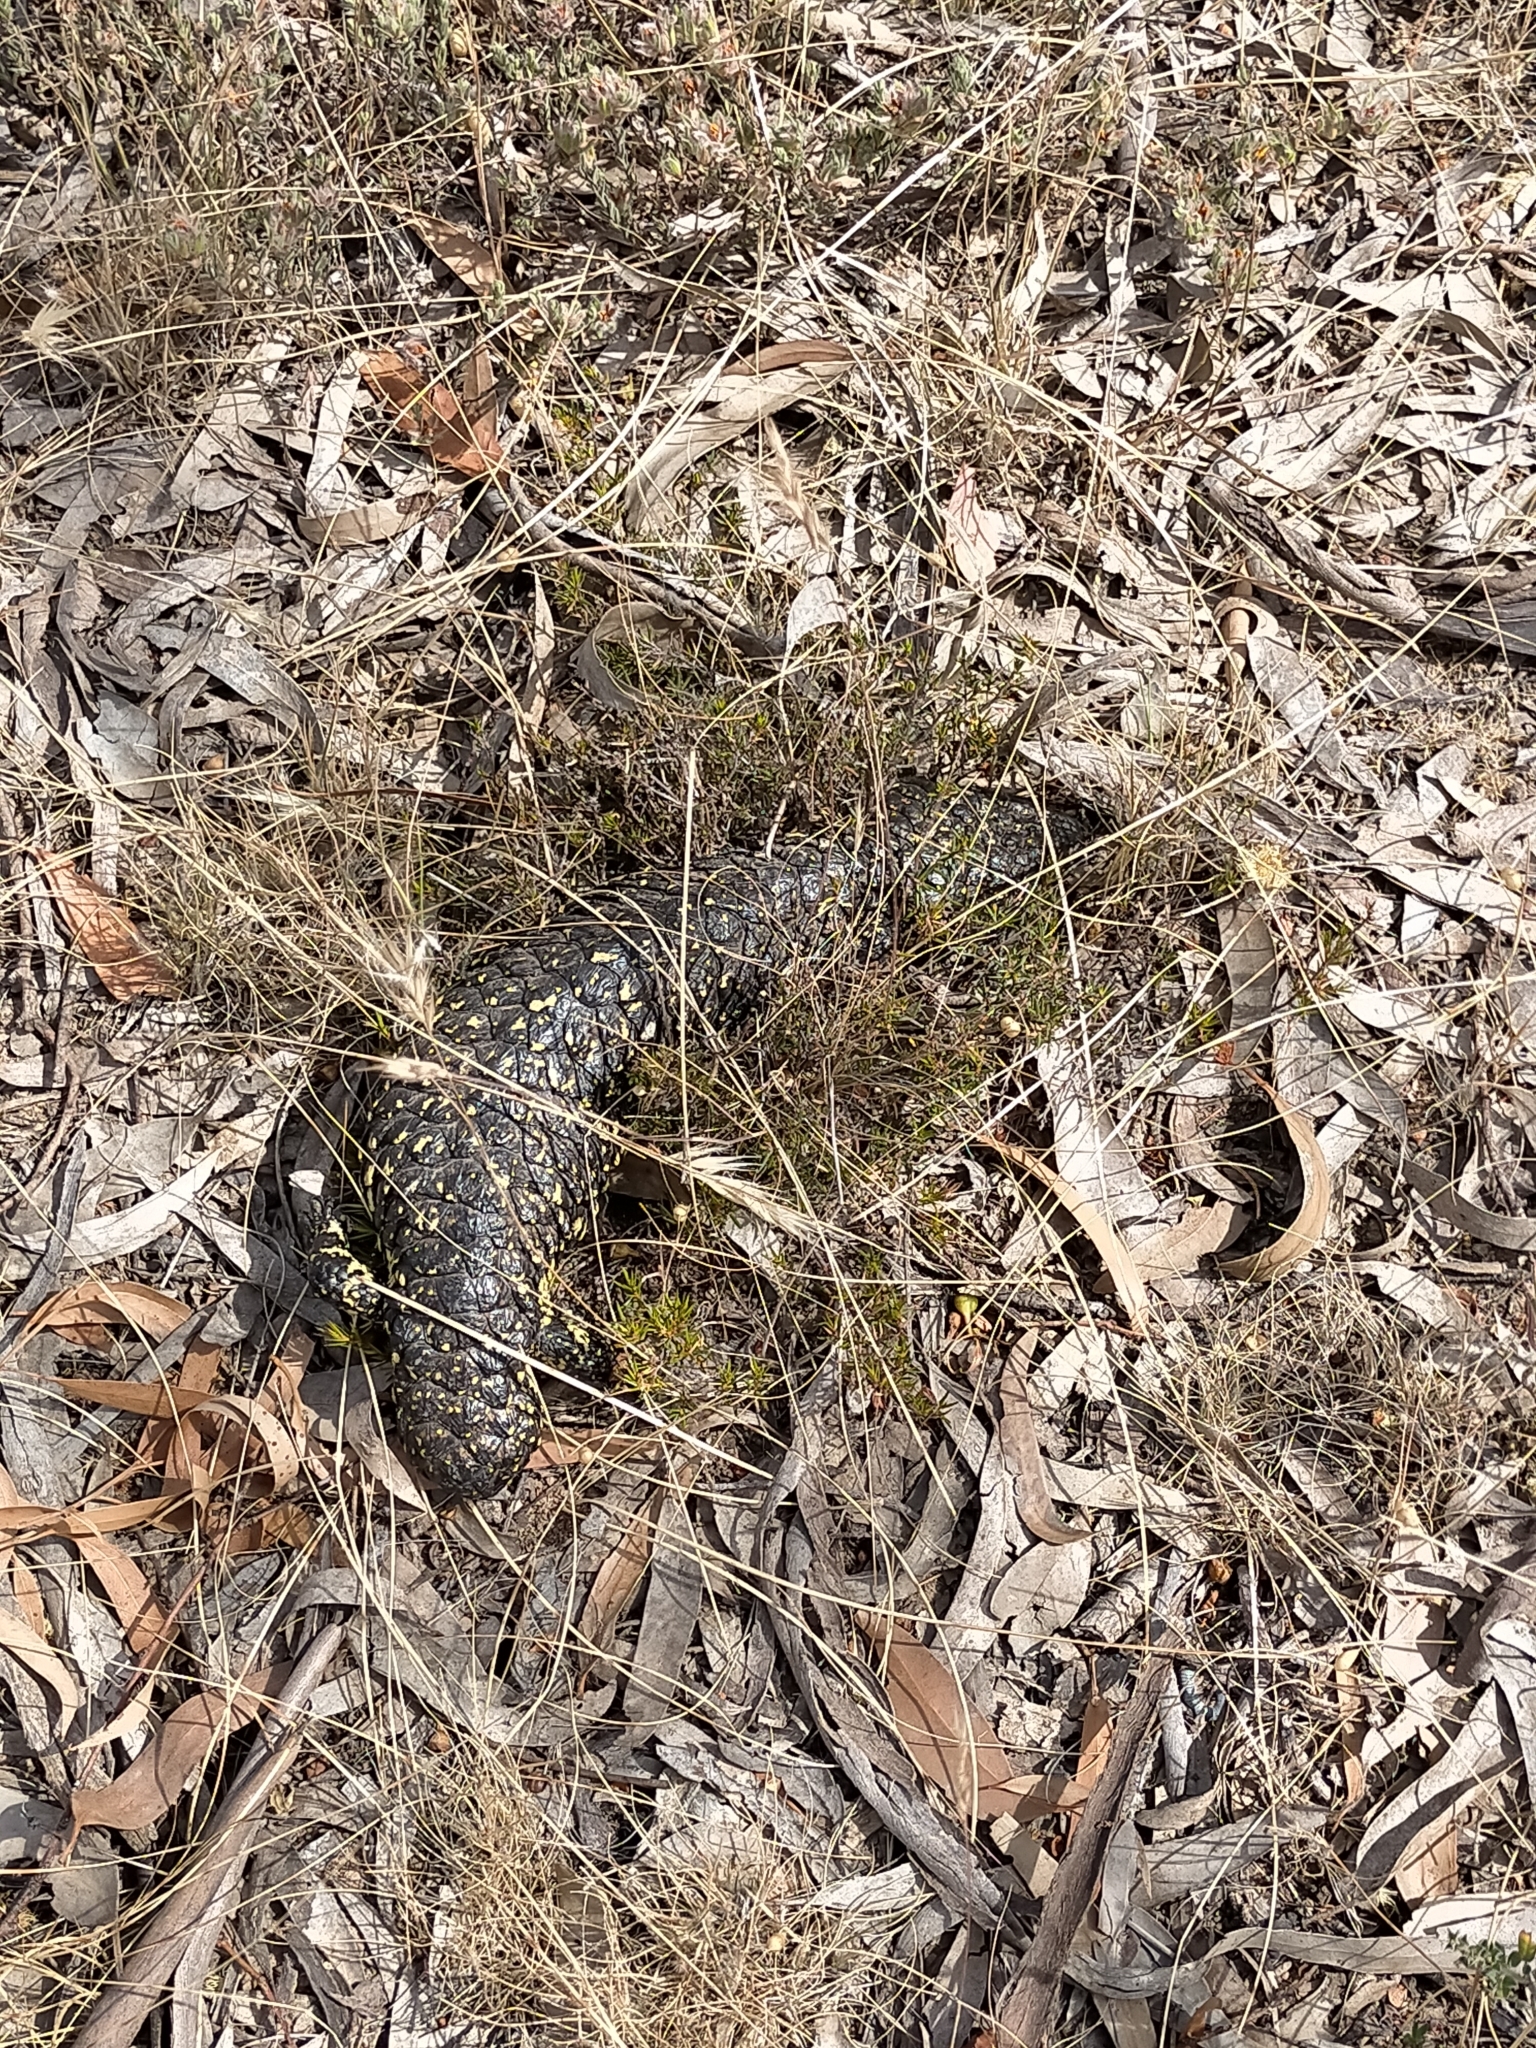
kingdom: Animalia
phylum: Chordata
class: Squamata
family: Scincidae
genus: Tiliqua
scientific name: Tiliqua rugosa
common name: Pinecone lizard
